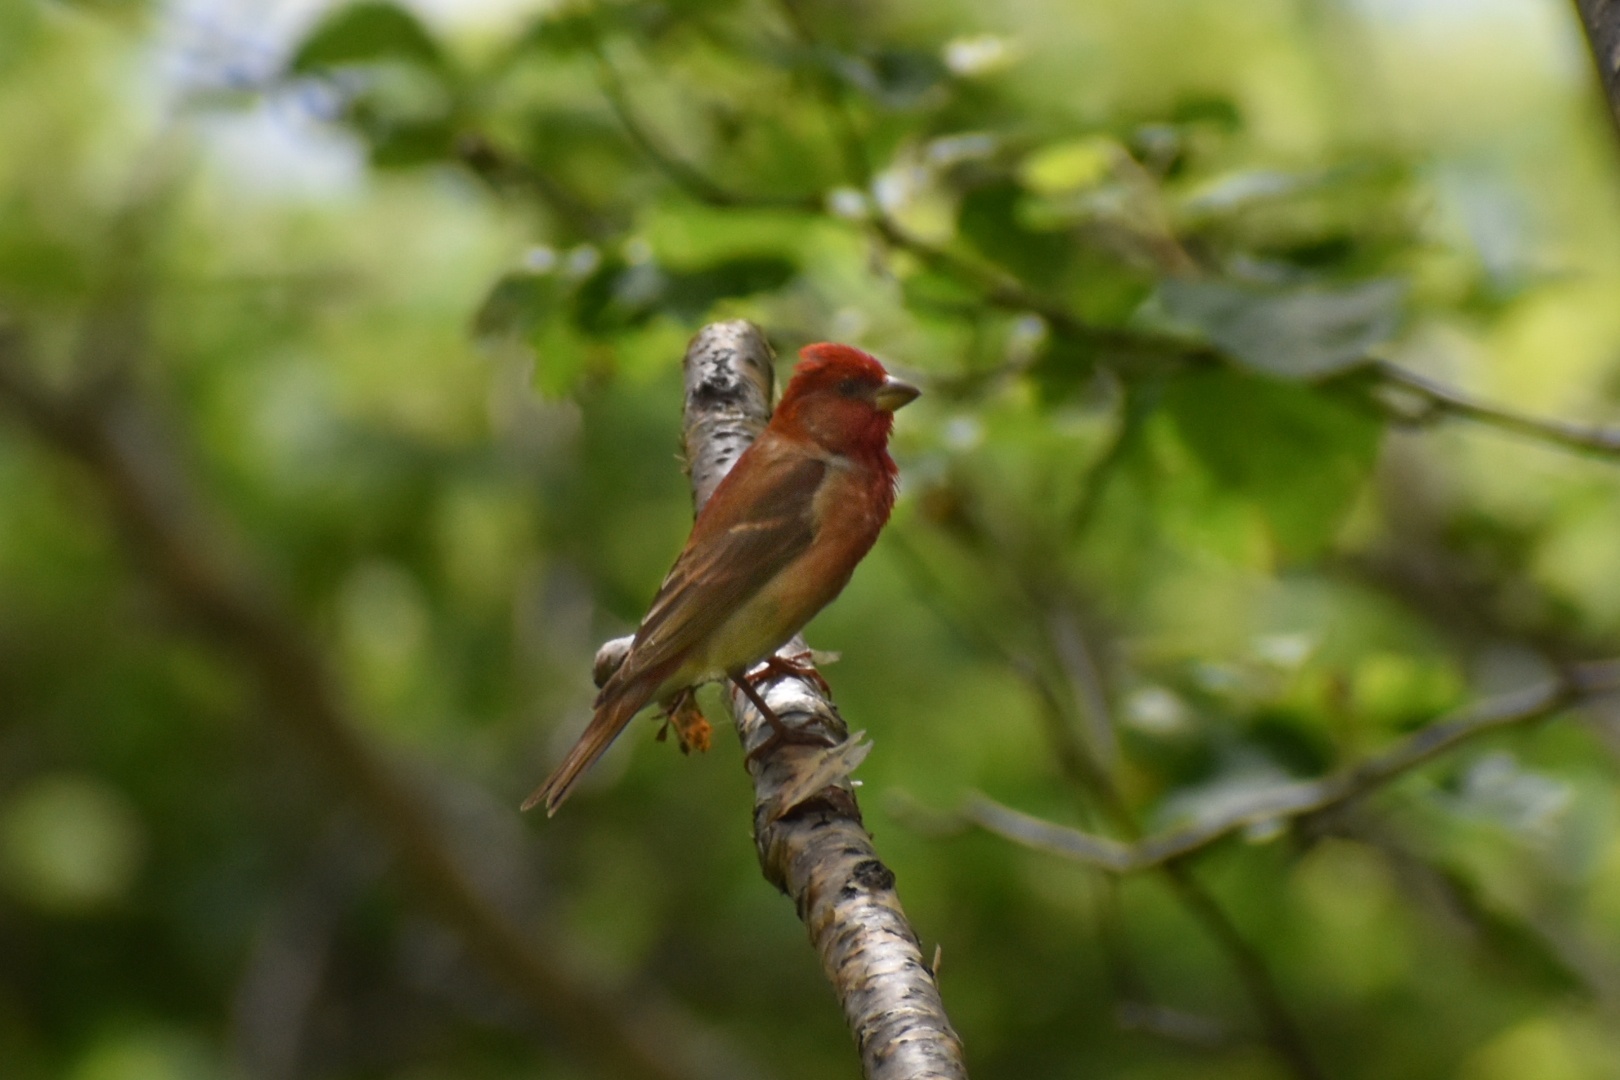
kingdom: Animalia
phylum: Chordata
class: Aves
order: Passeriformes
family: Fringillidae
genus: Carpodacus
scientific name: Carpodacus erythrinus
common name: Common rosefinch
